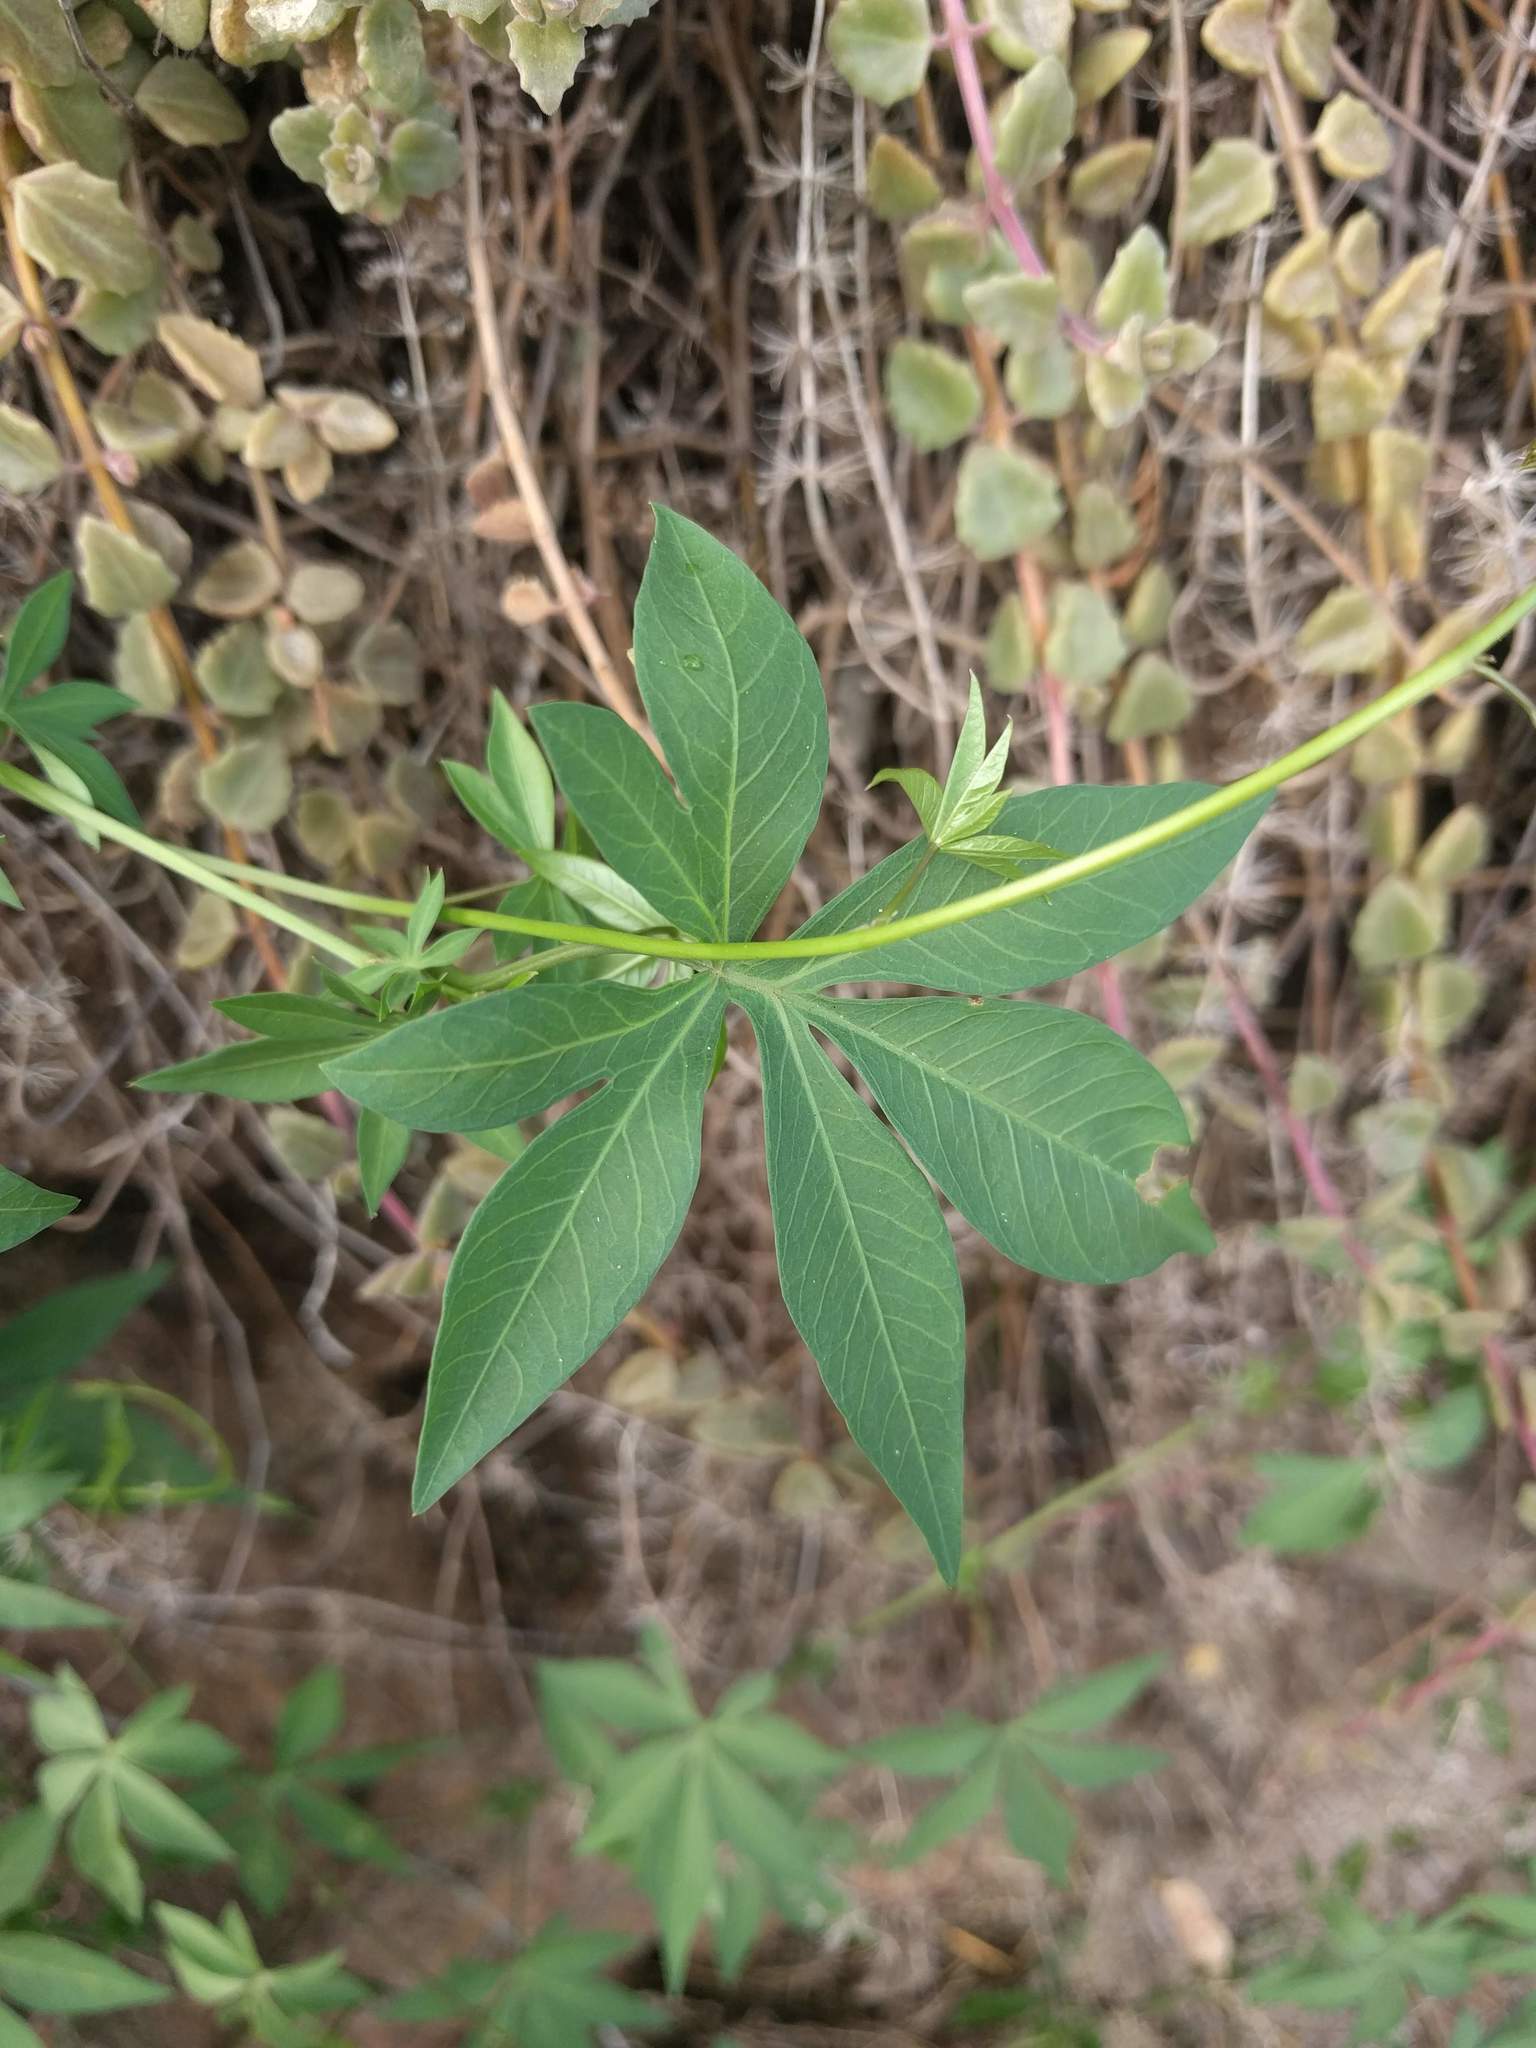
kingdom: Plantae
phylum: Tracheophyta
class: Magnoliopsida
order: Solanales
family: Convolvulaceae
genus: Distimake
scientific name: Distimake tuberosus
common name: Spanish arborvine
